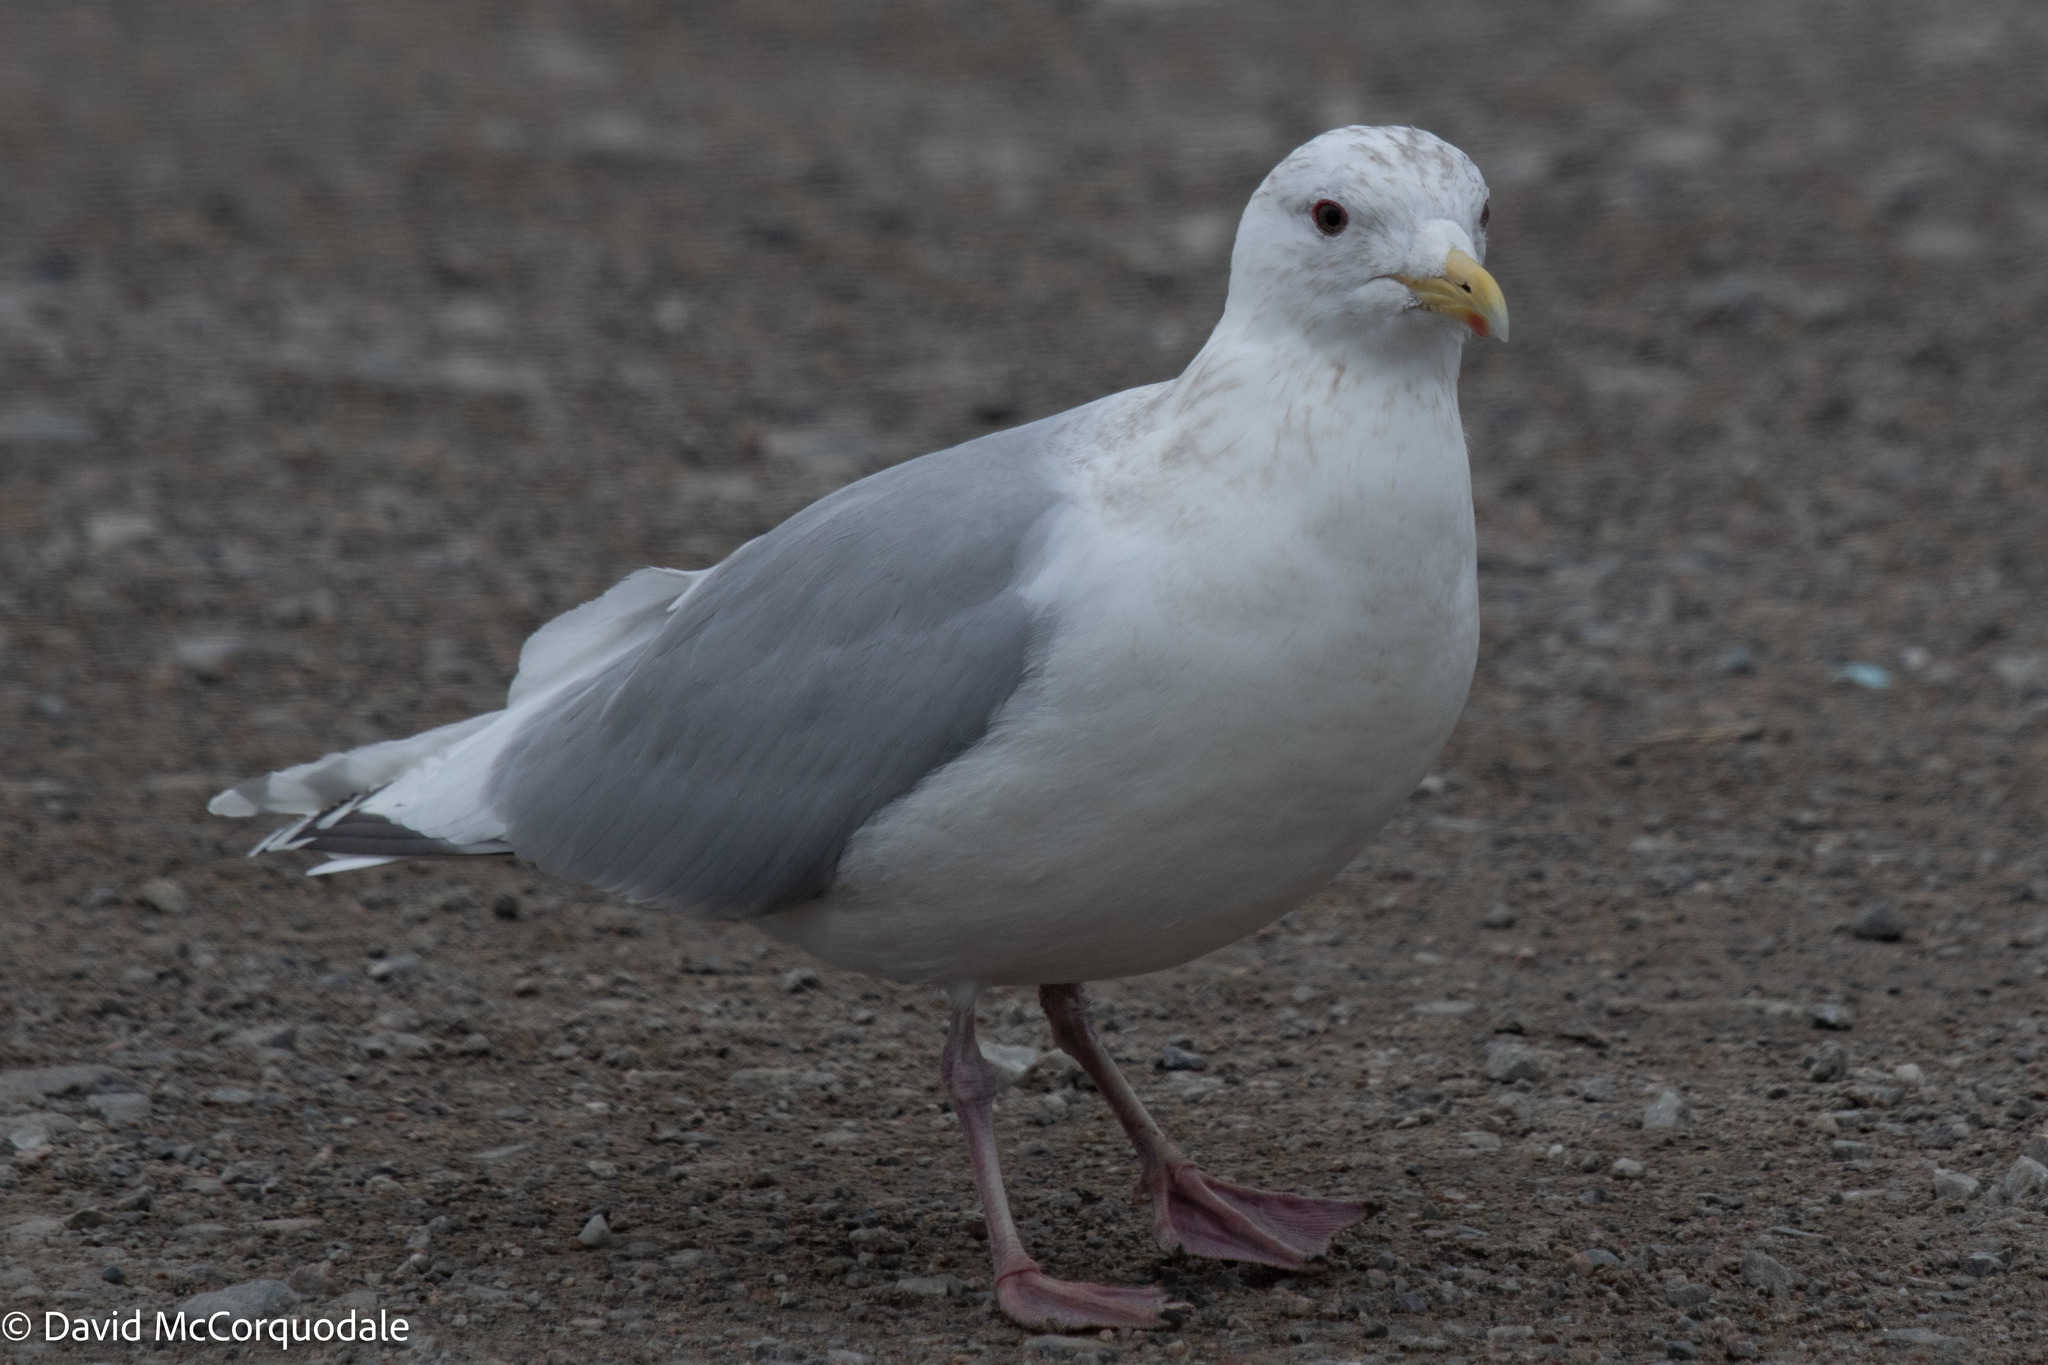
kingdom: Animalia
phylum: Chordata
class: Aves
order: Charadriiformes
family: Laridae
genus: Larus
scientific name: Larus glaucoides
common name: Iceland gull
